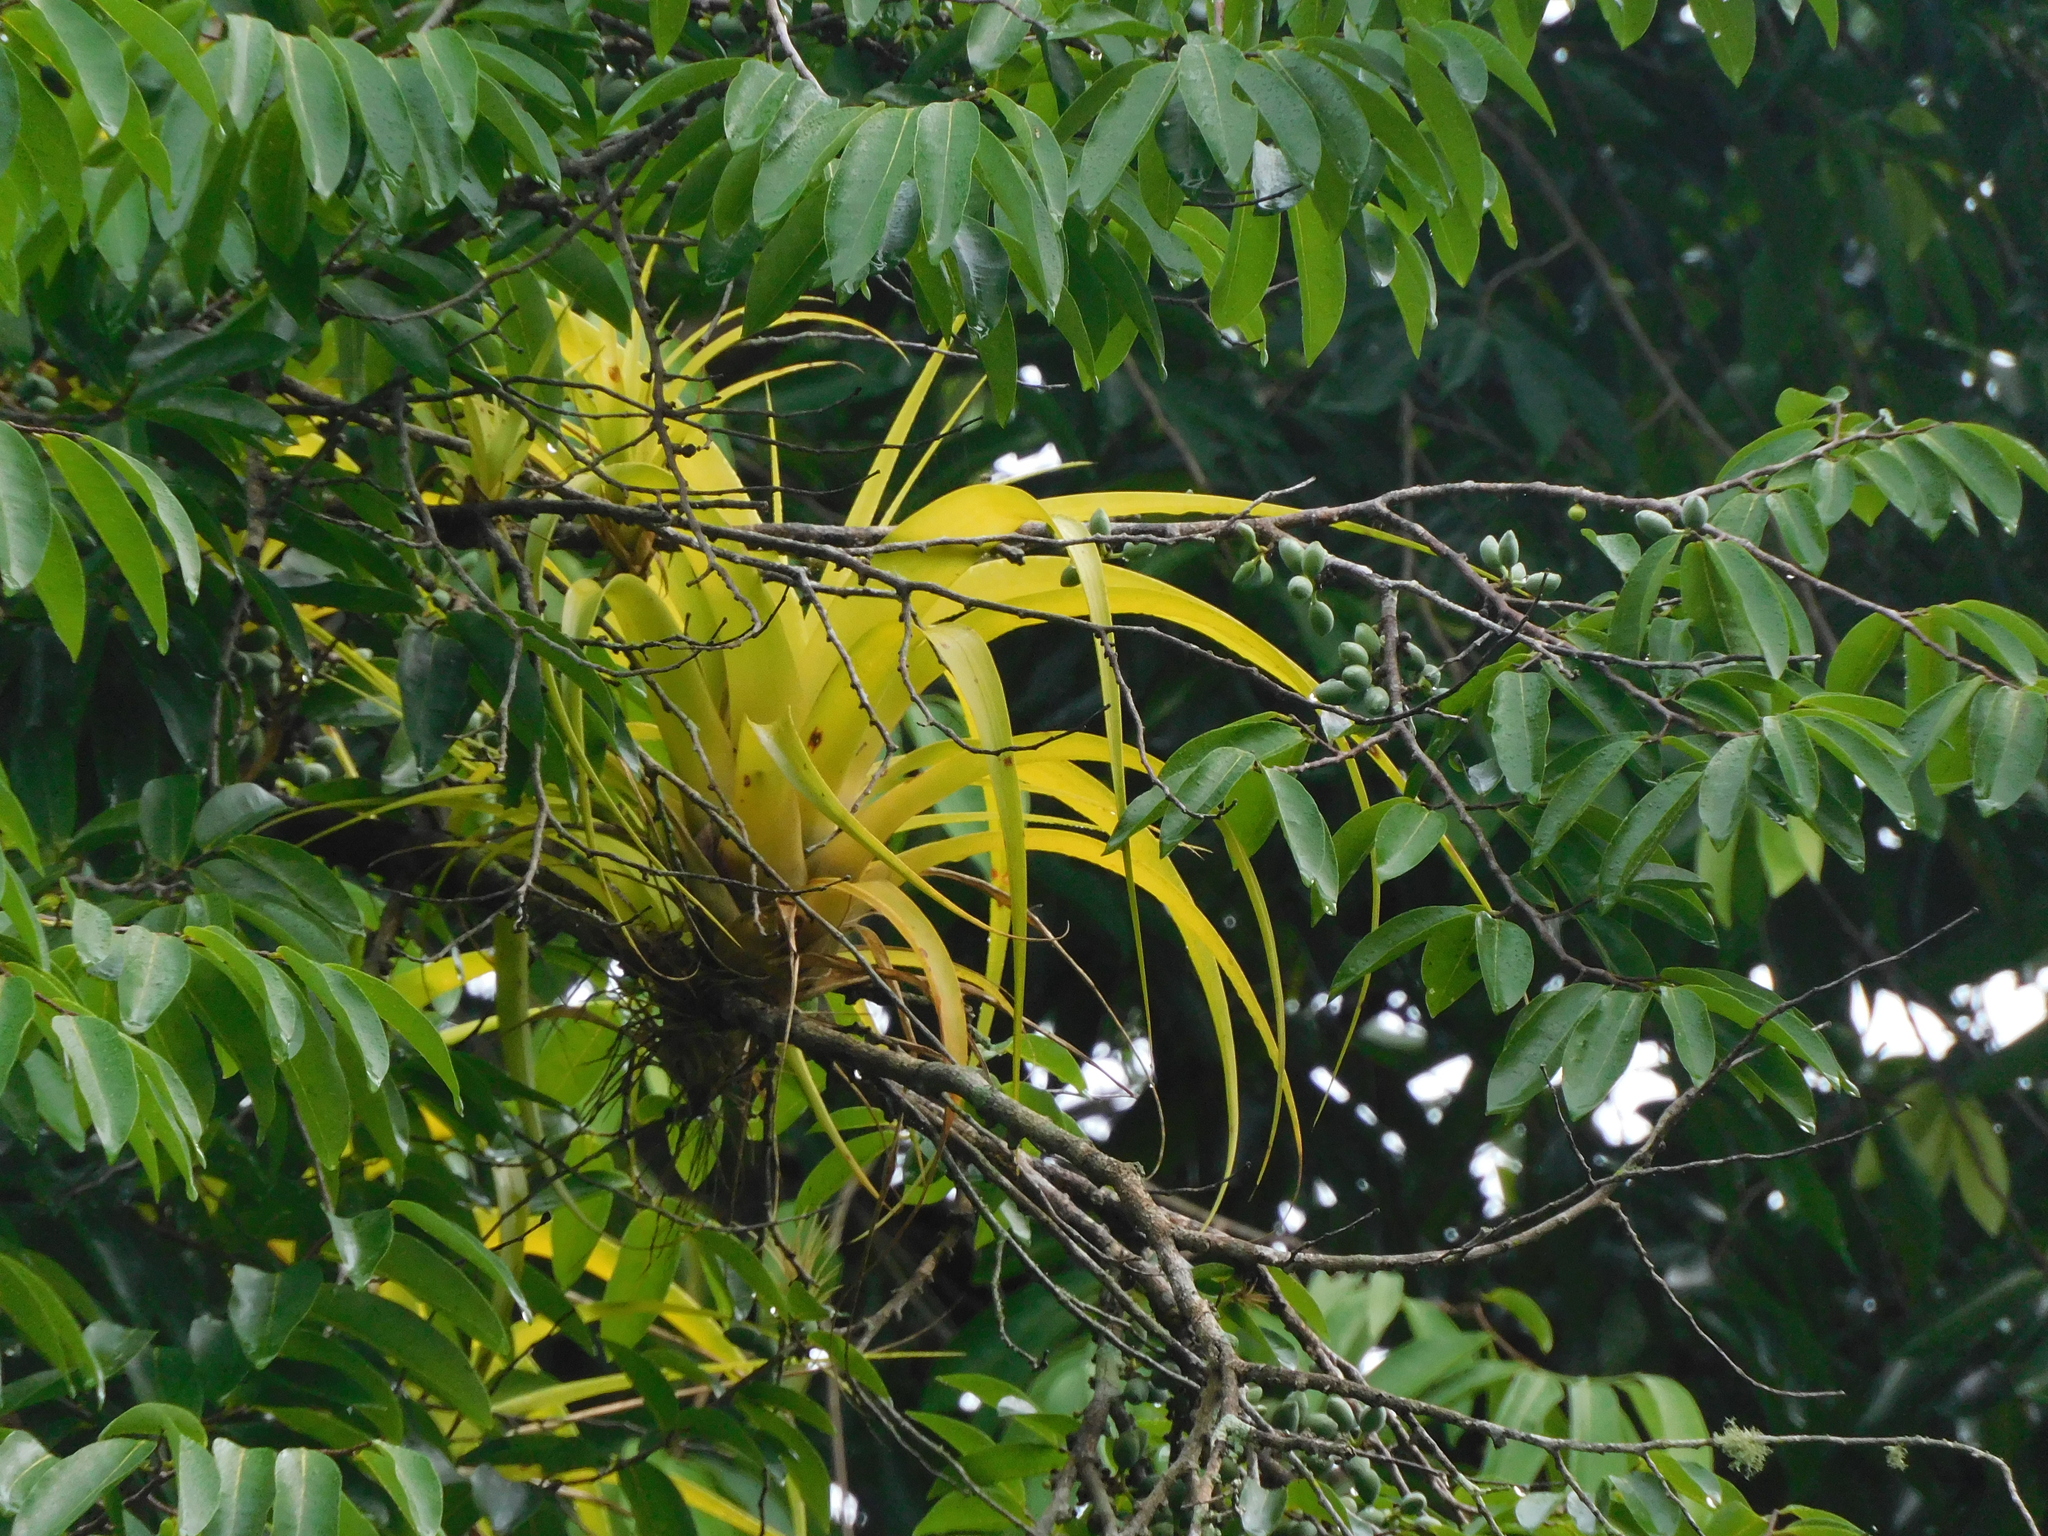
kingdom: Plantae
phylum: Tracheophyta
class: Liliopsida
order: Poales
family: Bromeliaceae
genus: Tillandsia
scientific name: Tillandsia elongata
